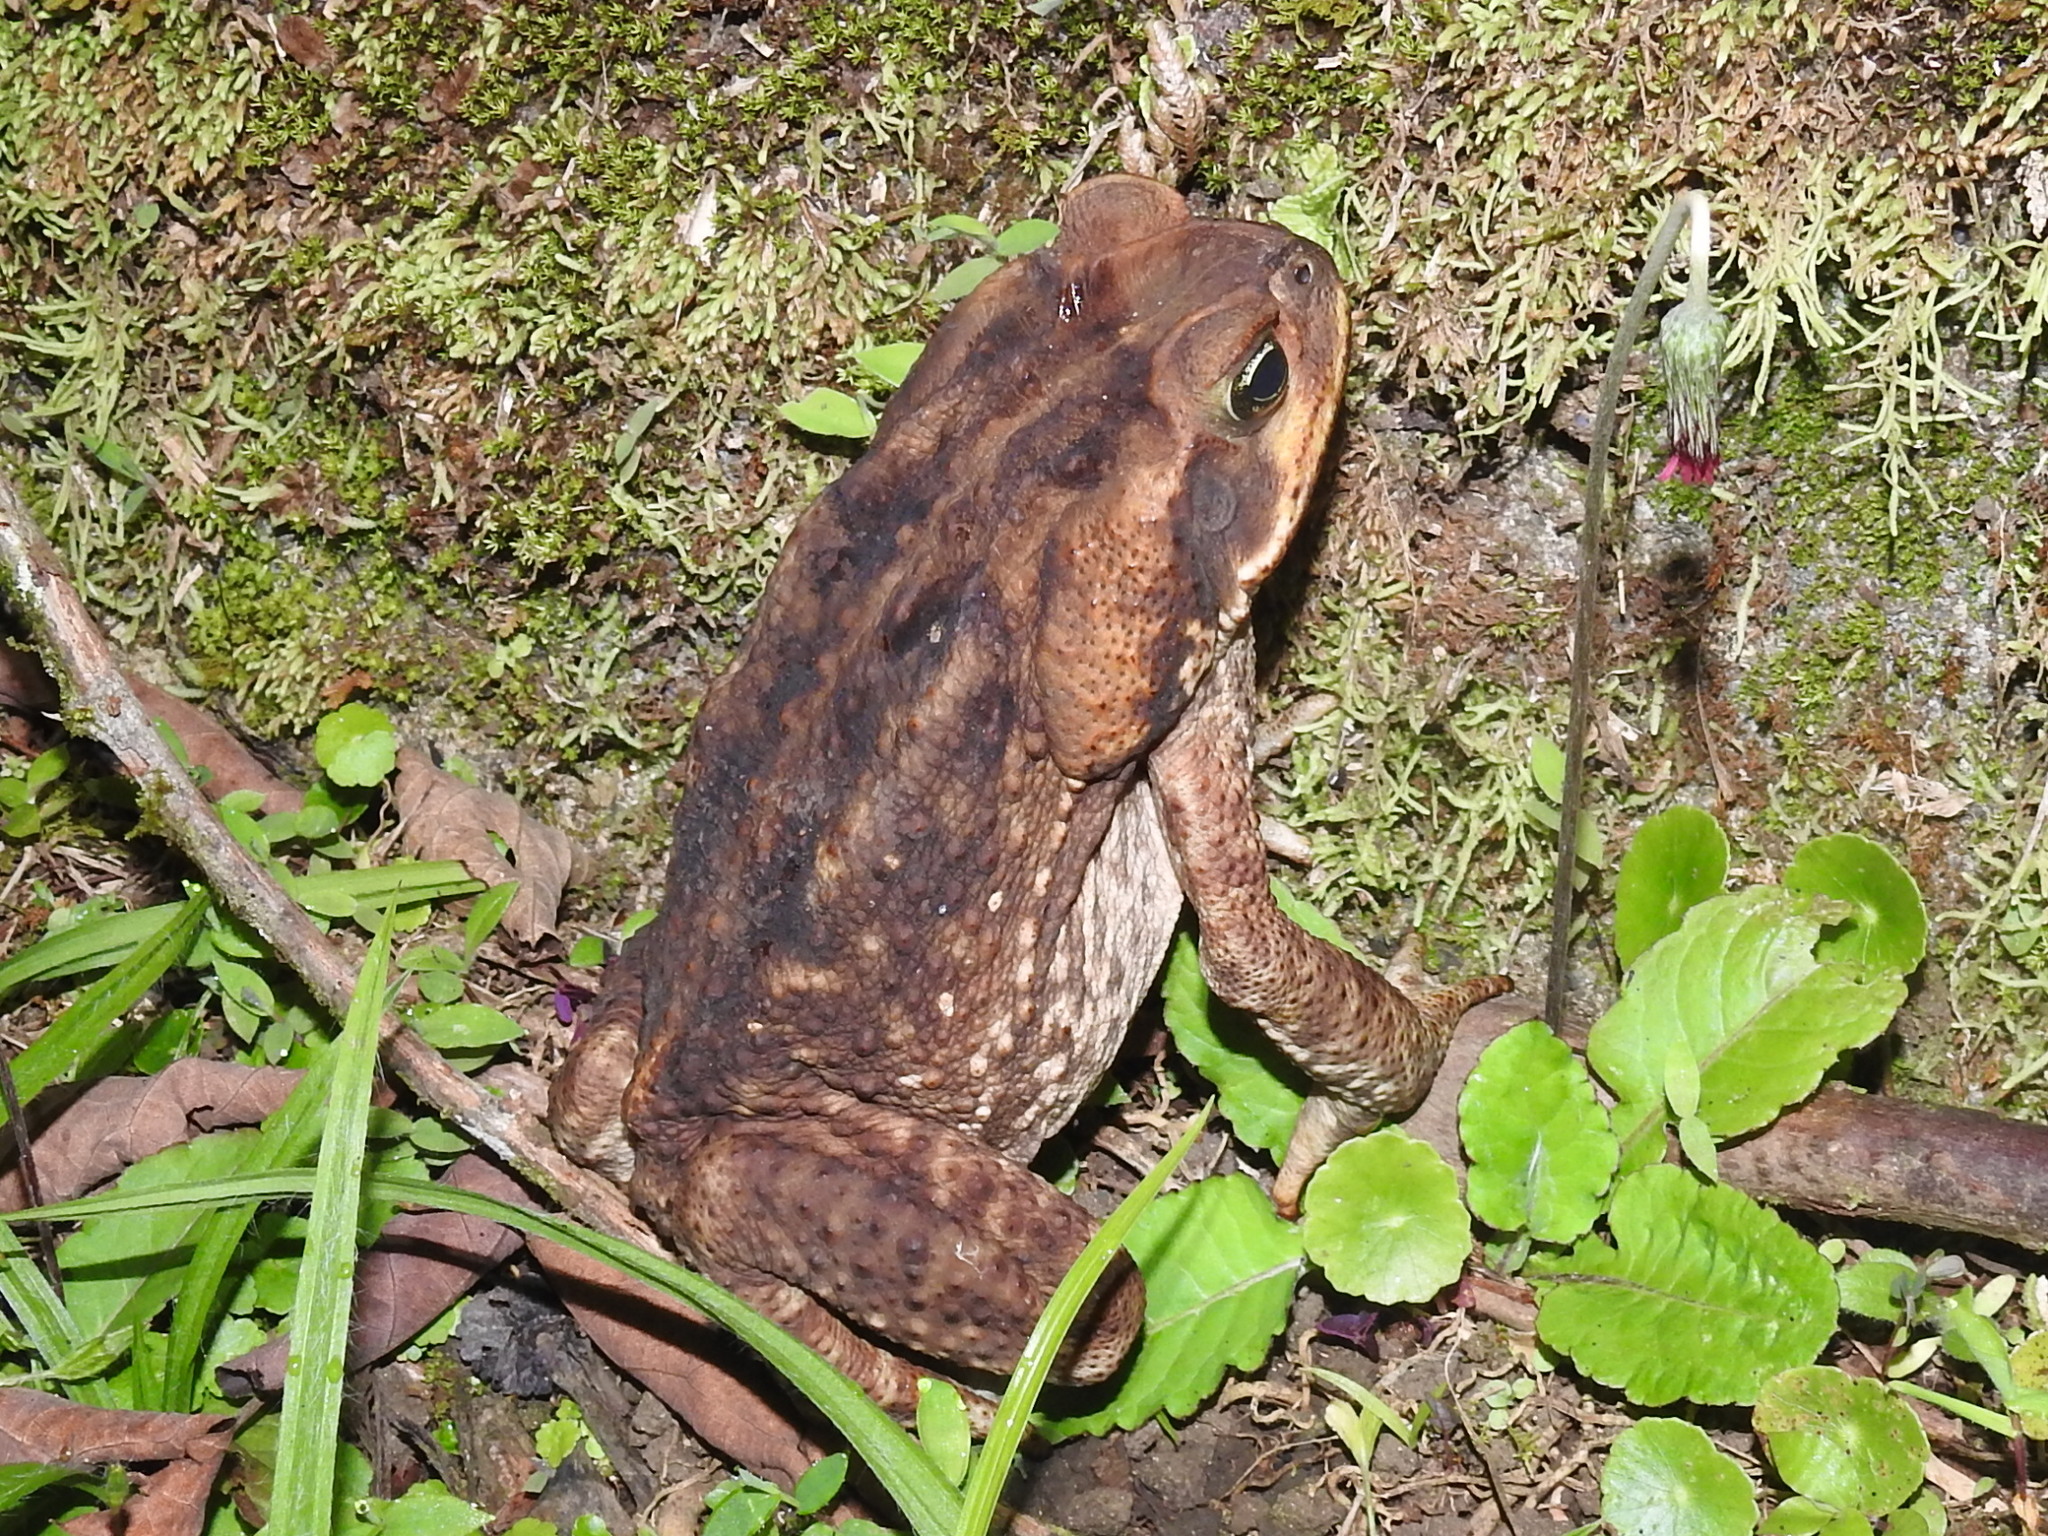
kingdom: Animalia
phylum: Chordata
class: Amphibia
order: Anura
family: Bufonidae
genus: Rhinella
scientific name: Rhinella horribilis
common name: Mesoamerican cane toad
